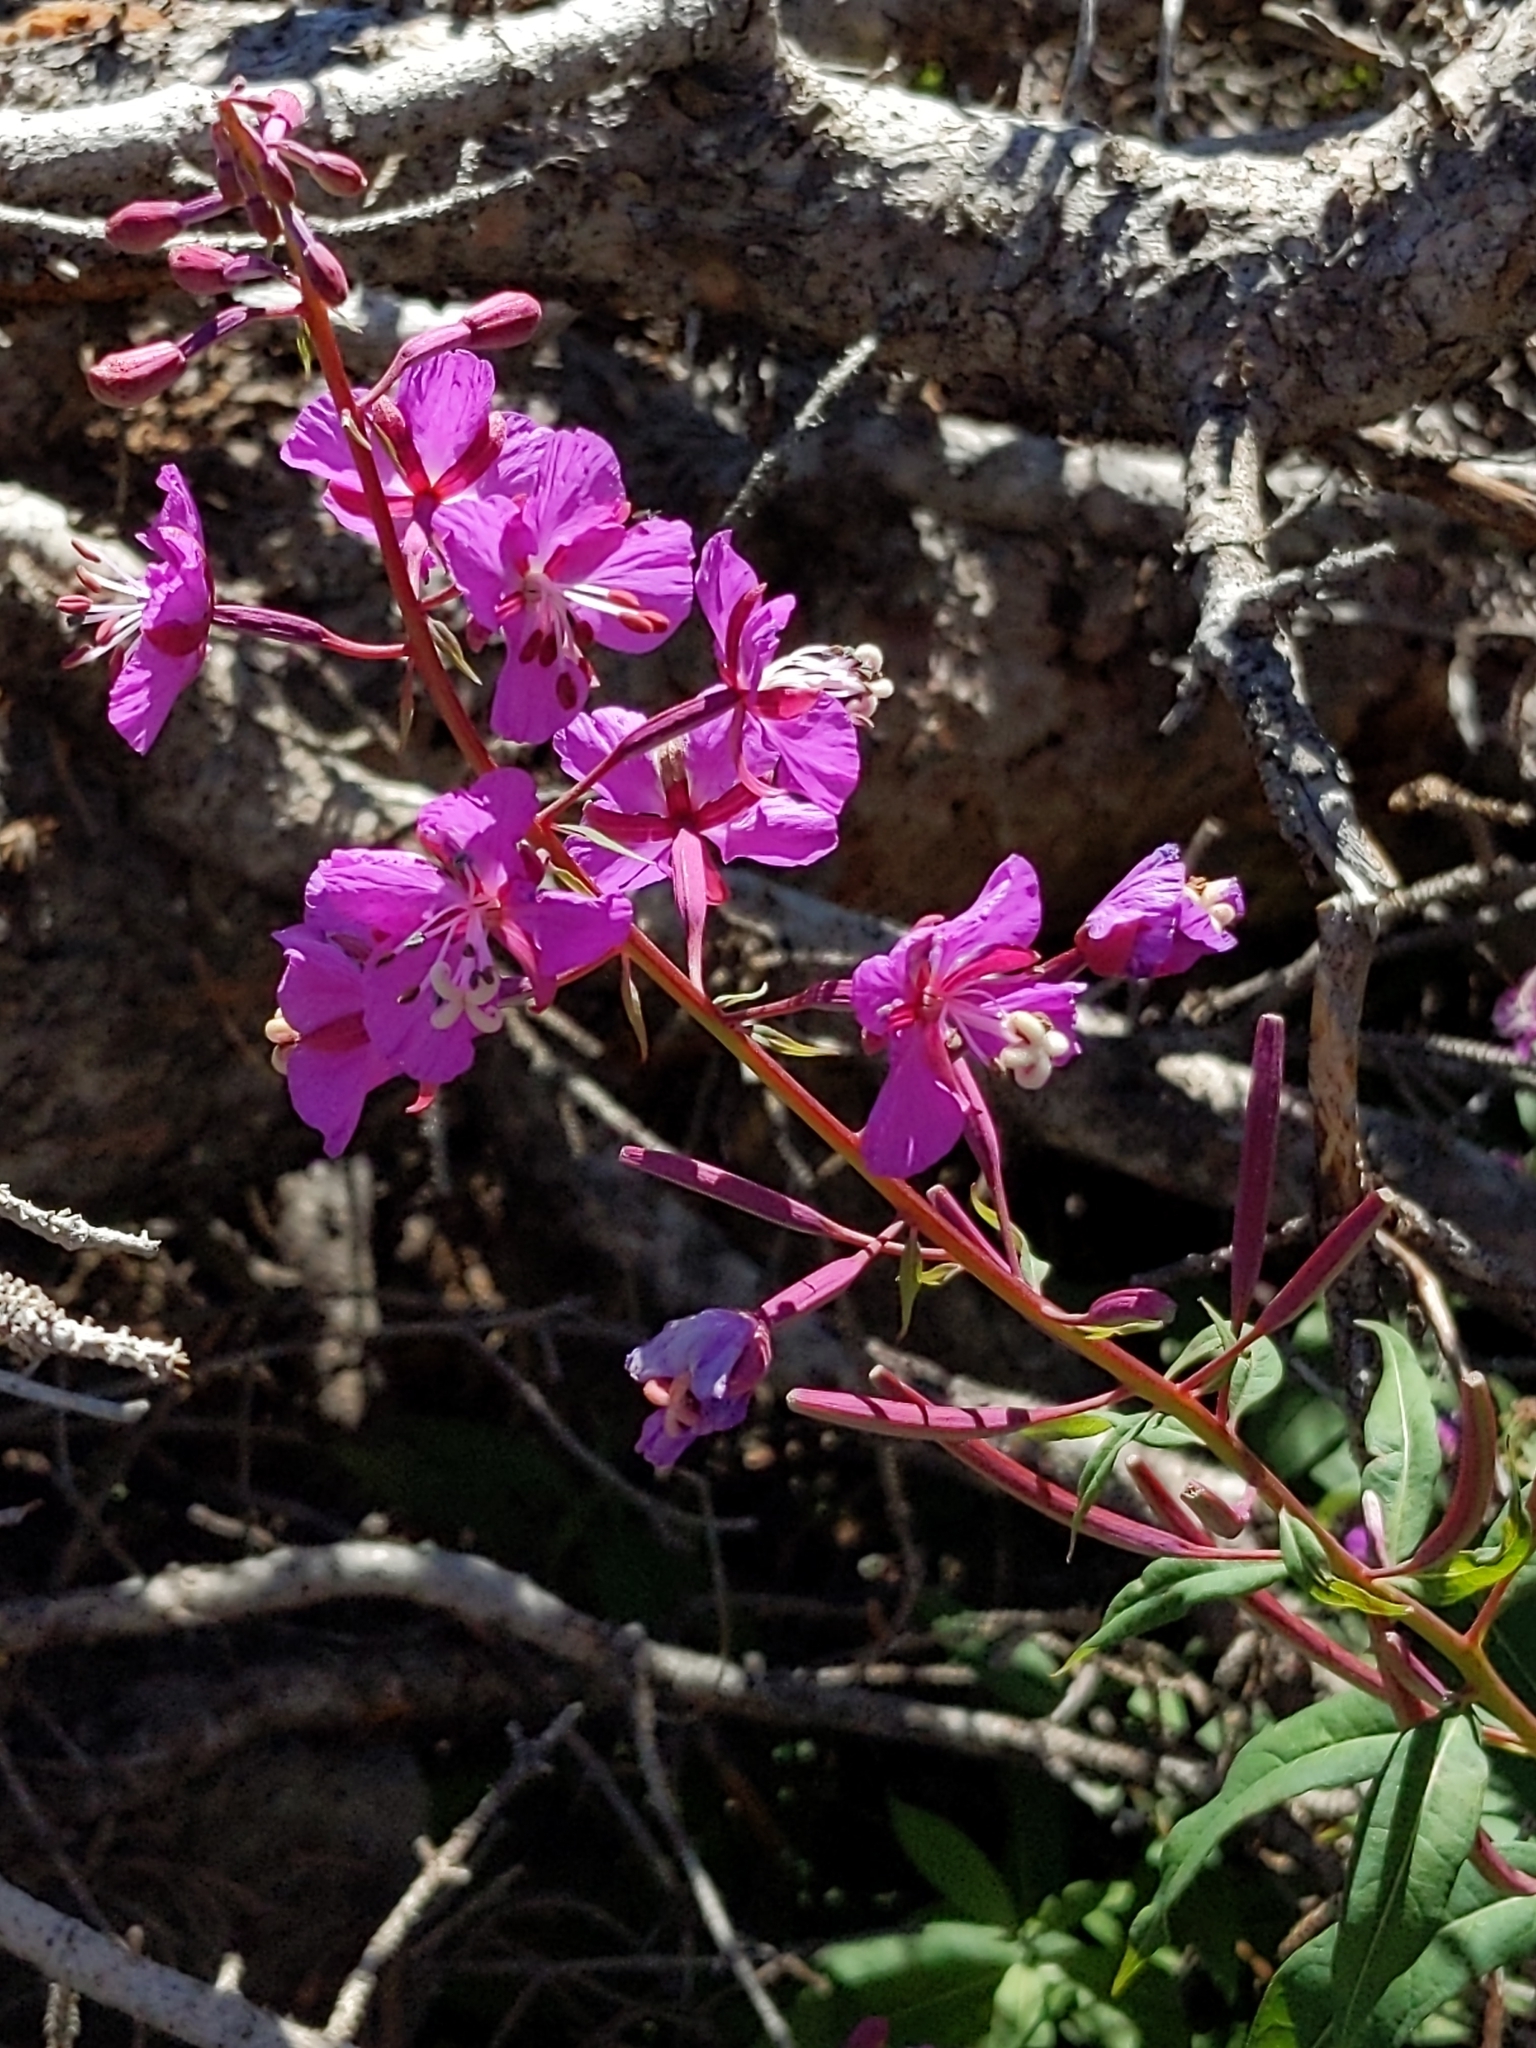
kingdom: Plantae
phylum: Tracheophyta
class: Magnoliopsida
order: Myrtales
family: Onagraceae
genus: Chamaenerion
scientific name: Chamaenerion angustifolium
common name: Fireweed
